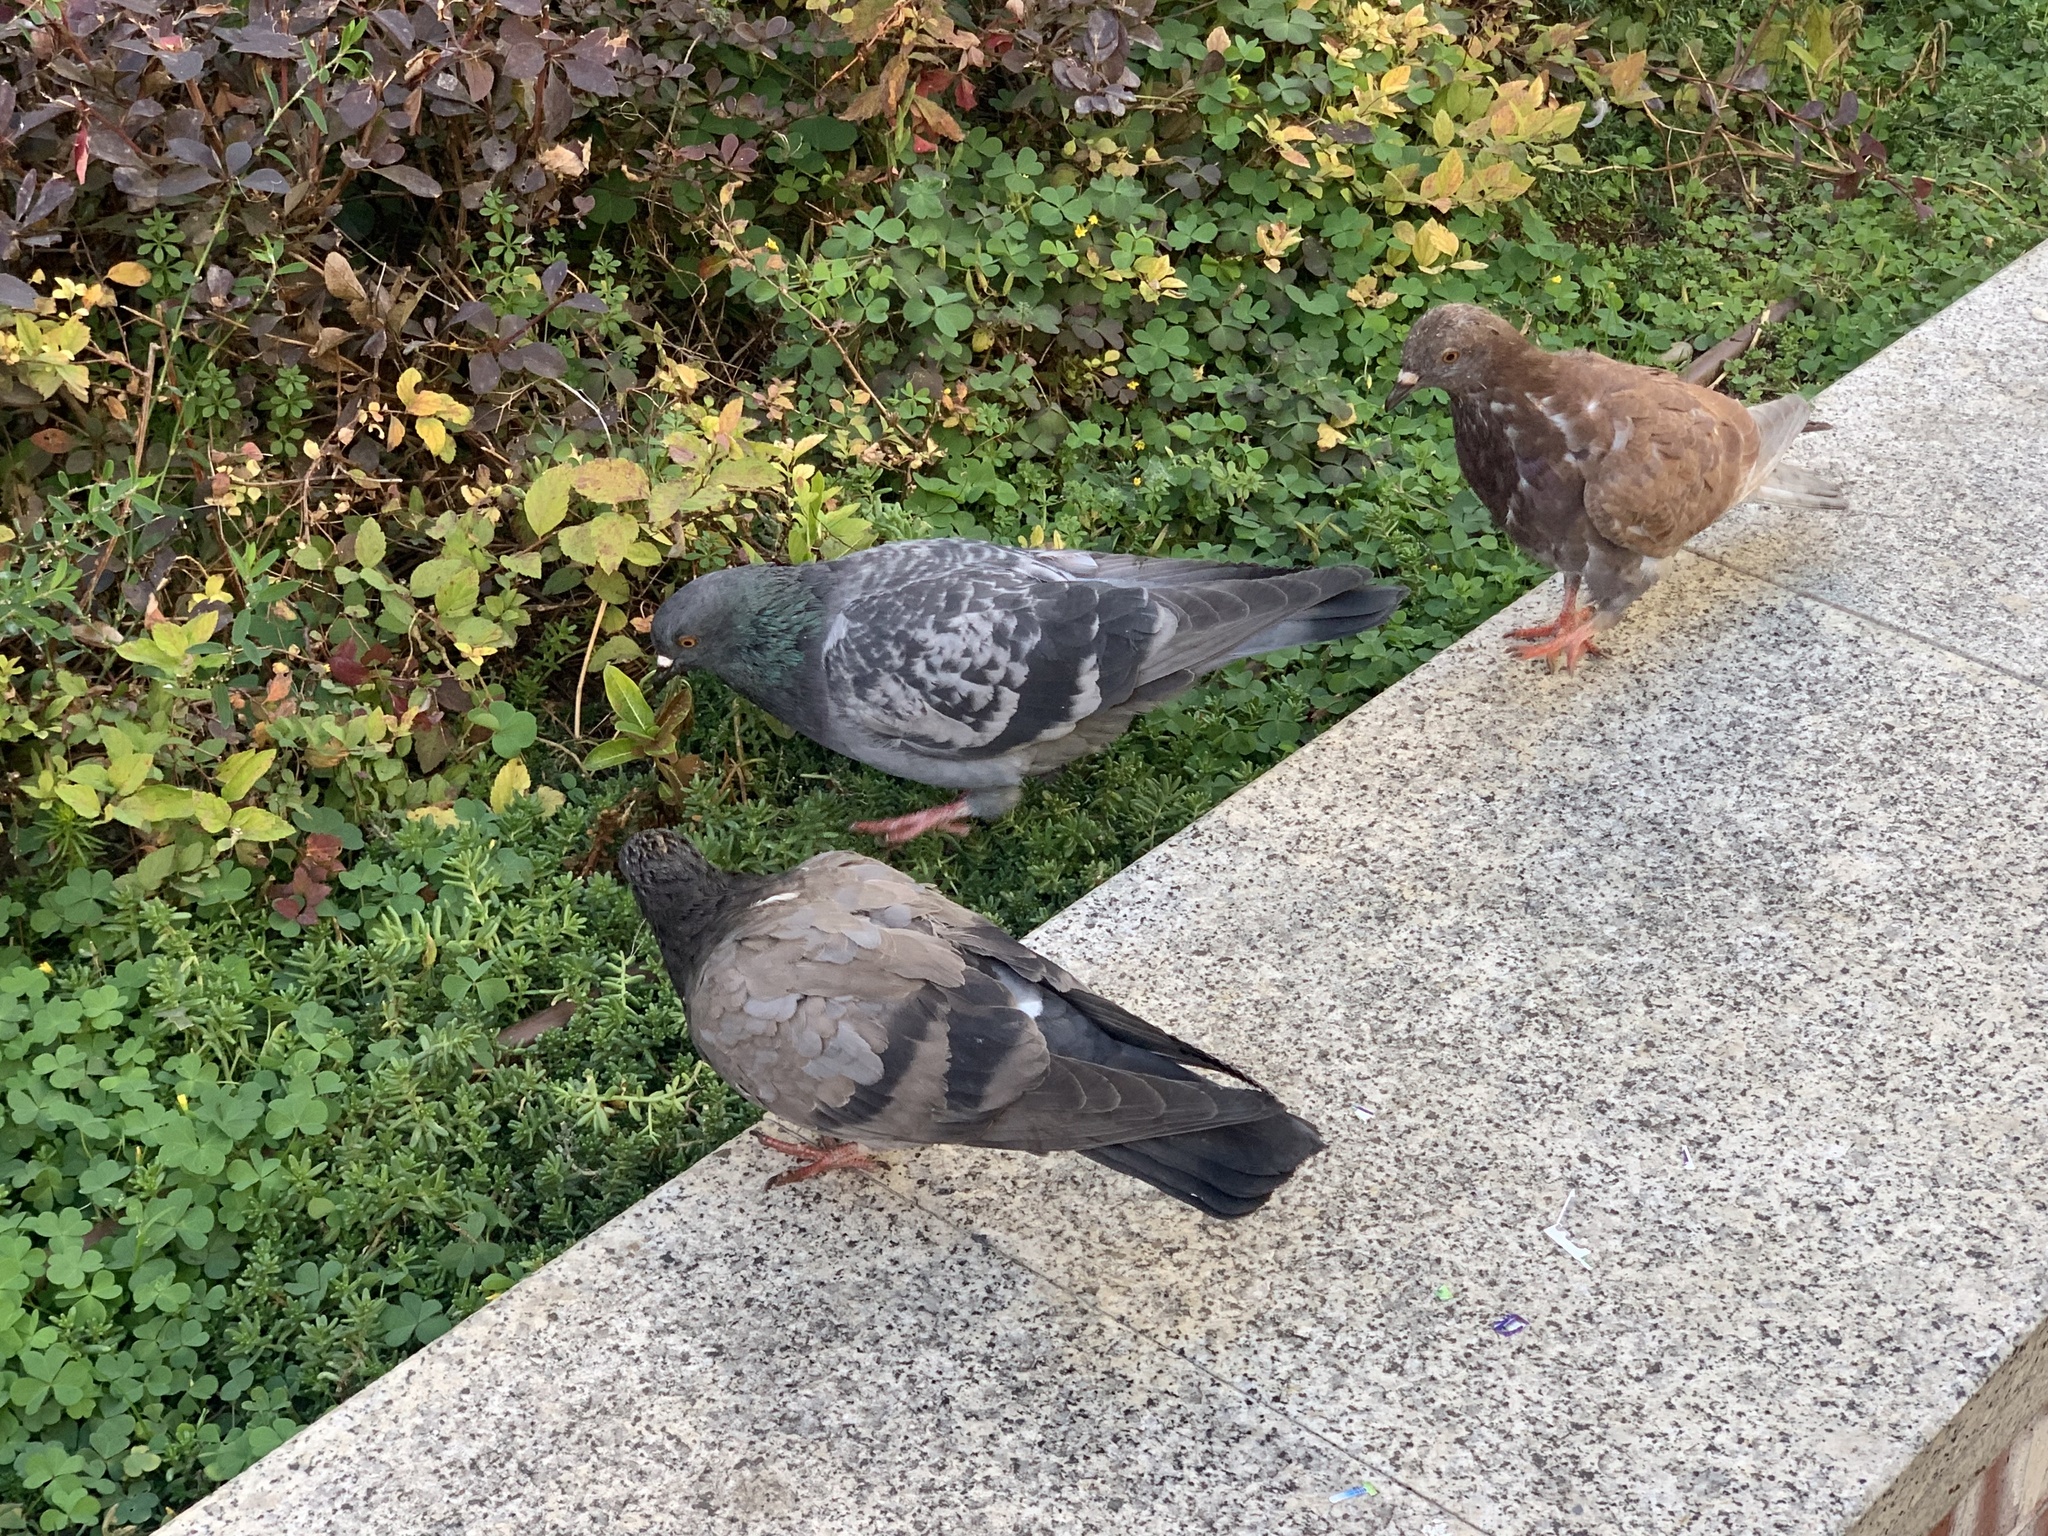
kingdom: Animalia
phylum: Chordata
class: Aves
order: Columbiformes
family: Columbidae
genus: Columba
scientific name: Columba livia
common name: Rock pigeon
